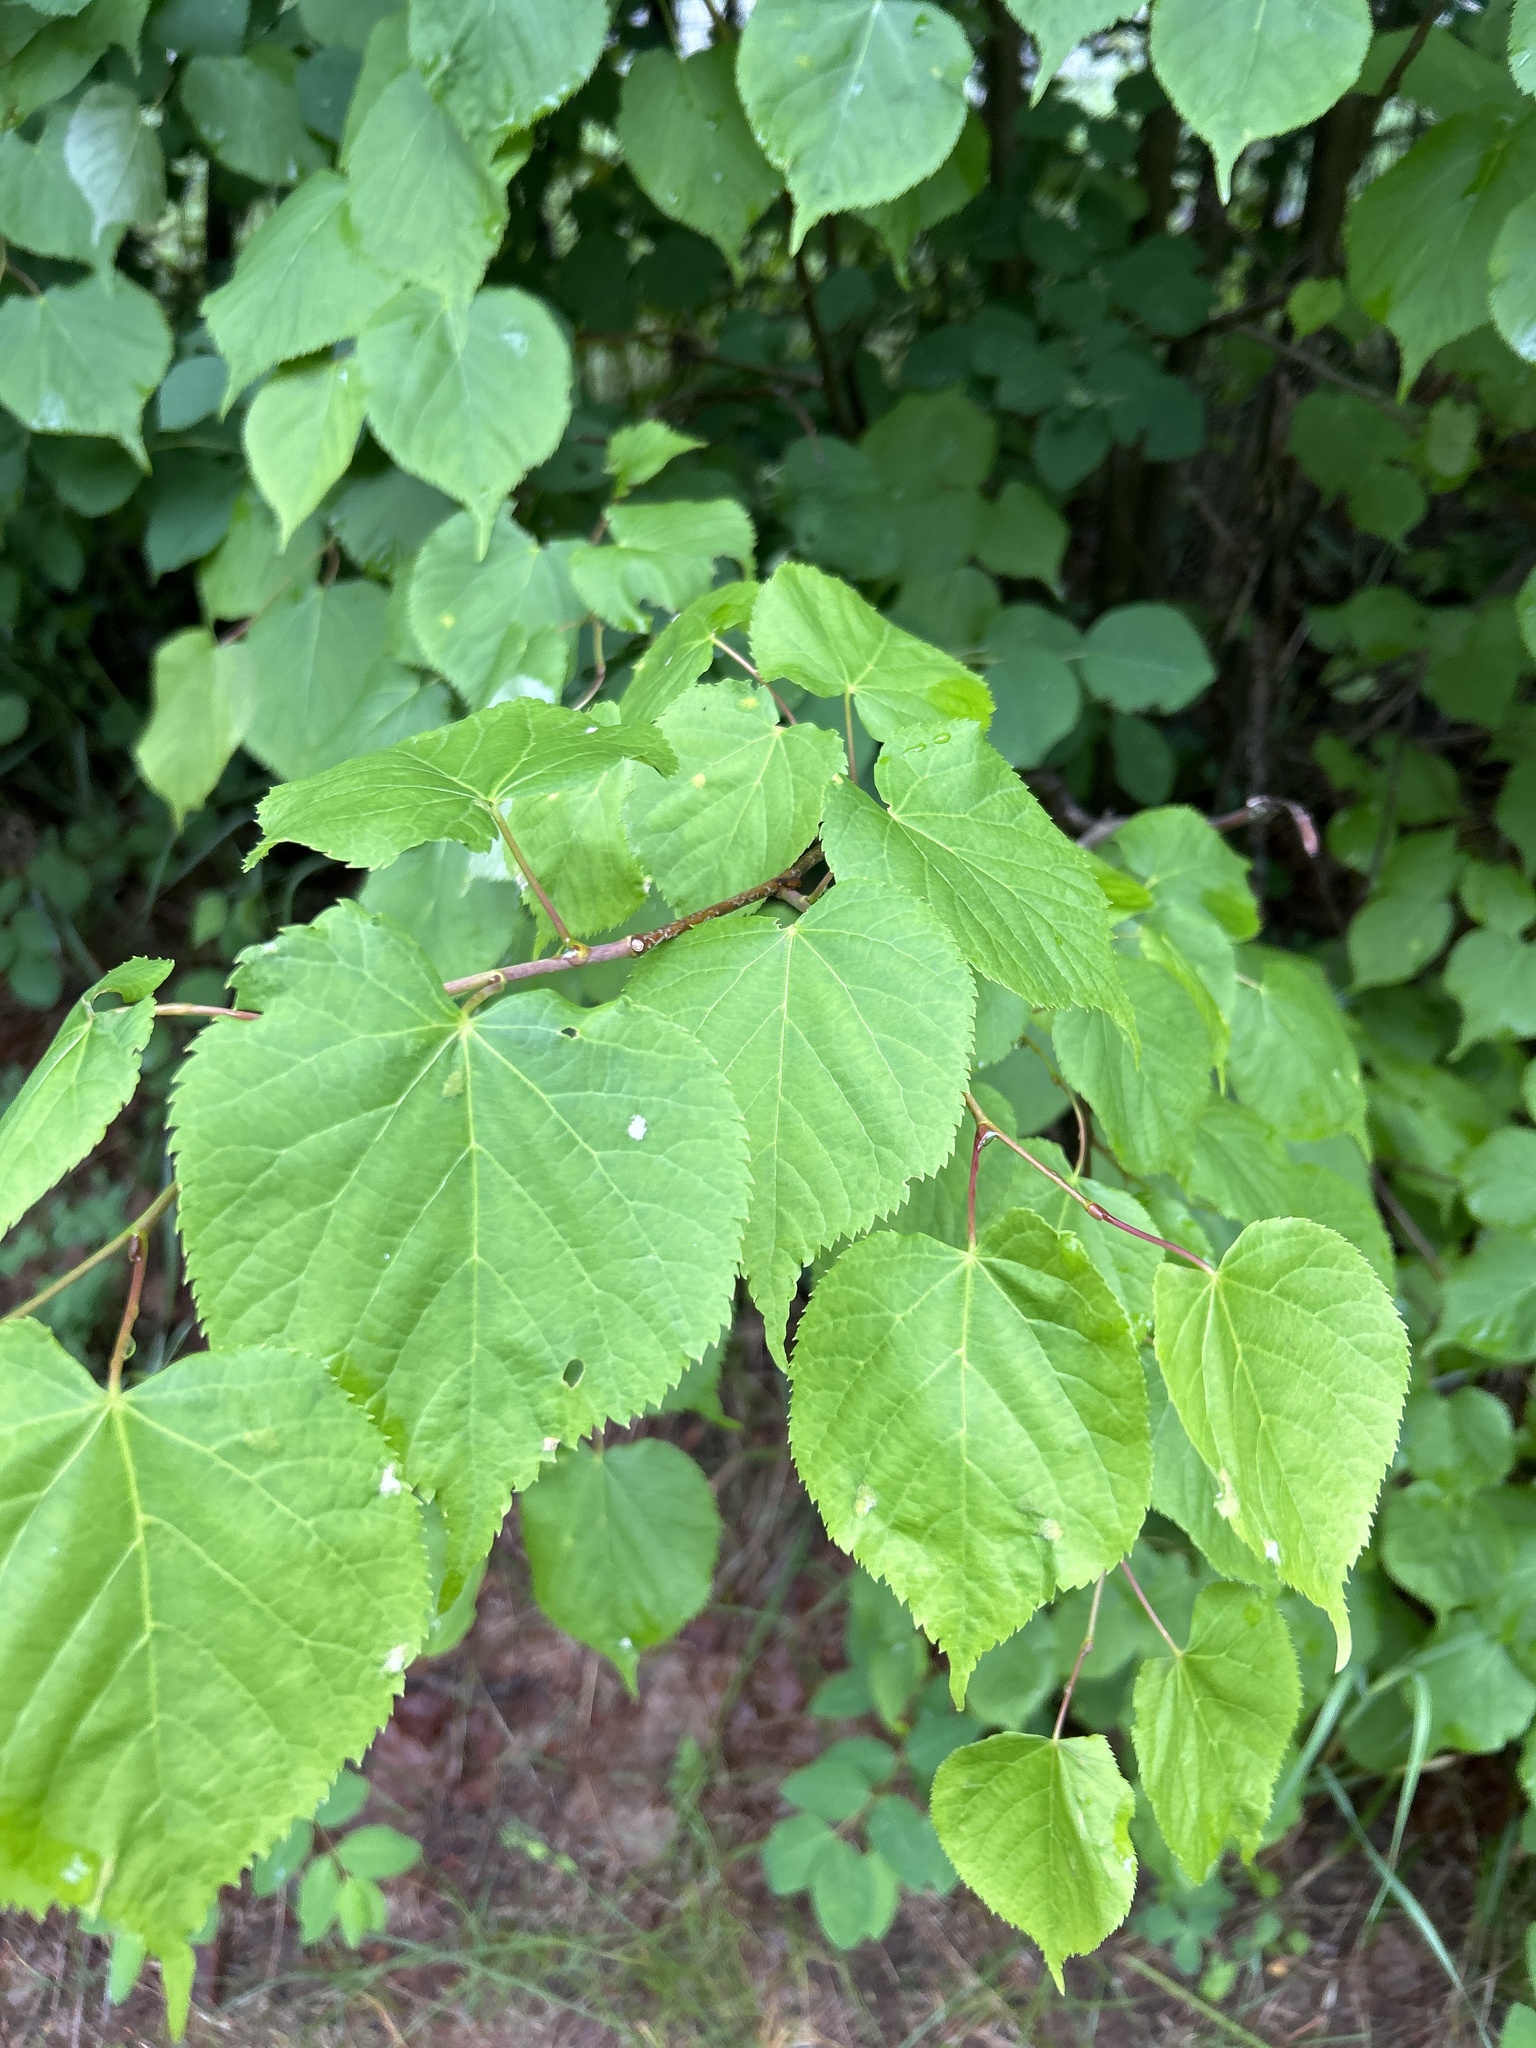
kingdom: Plantae
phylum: Tracheophyta
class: Magnoliopsida
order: Malvales
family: Malvaceae
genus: Tilia
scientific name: Tilia cordata
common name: Small-leaved lime
